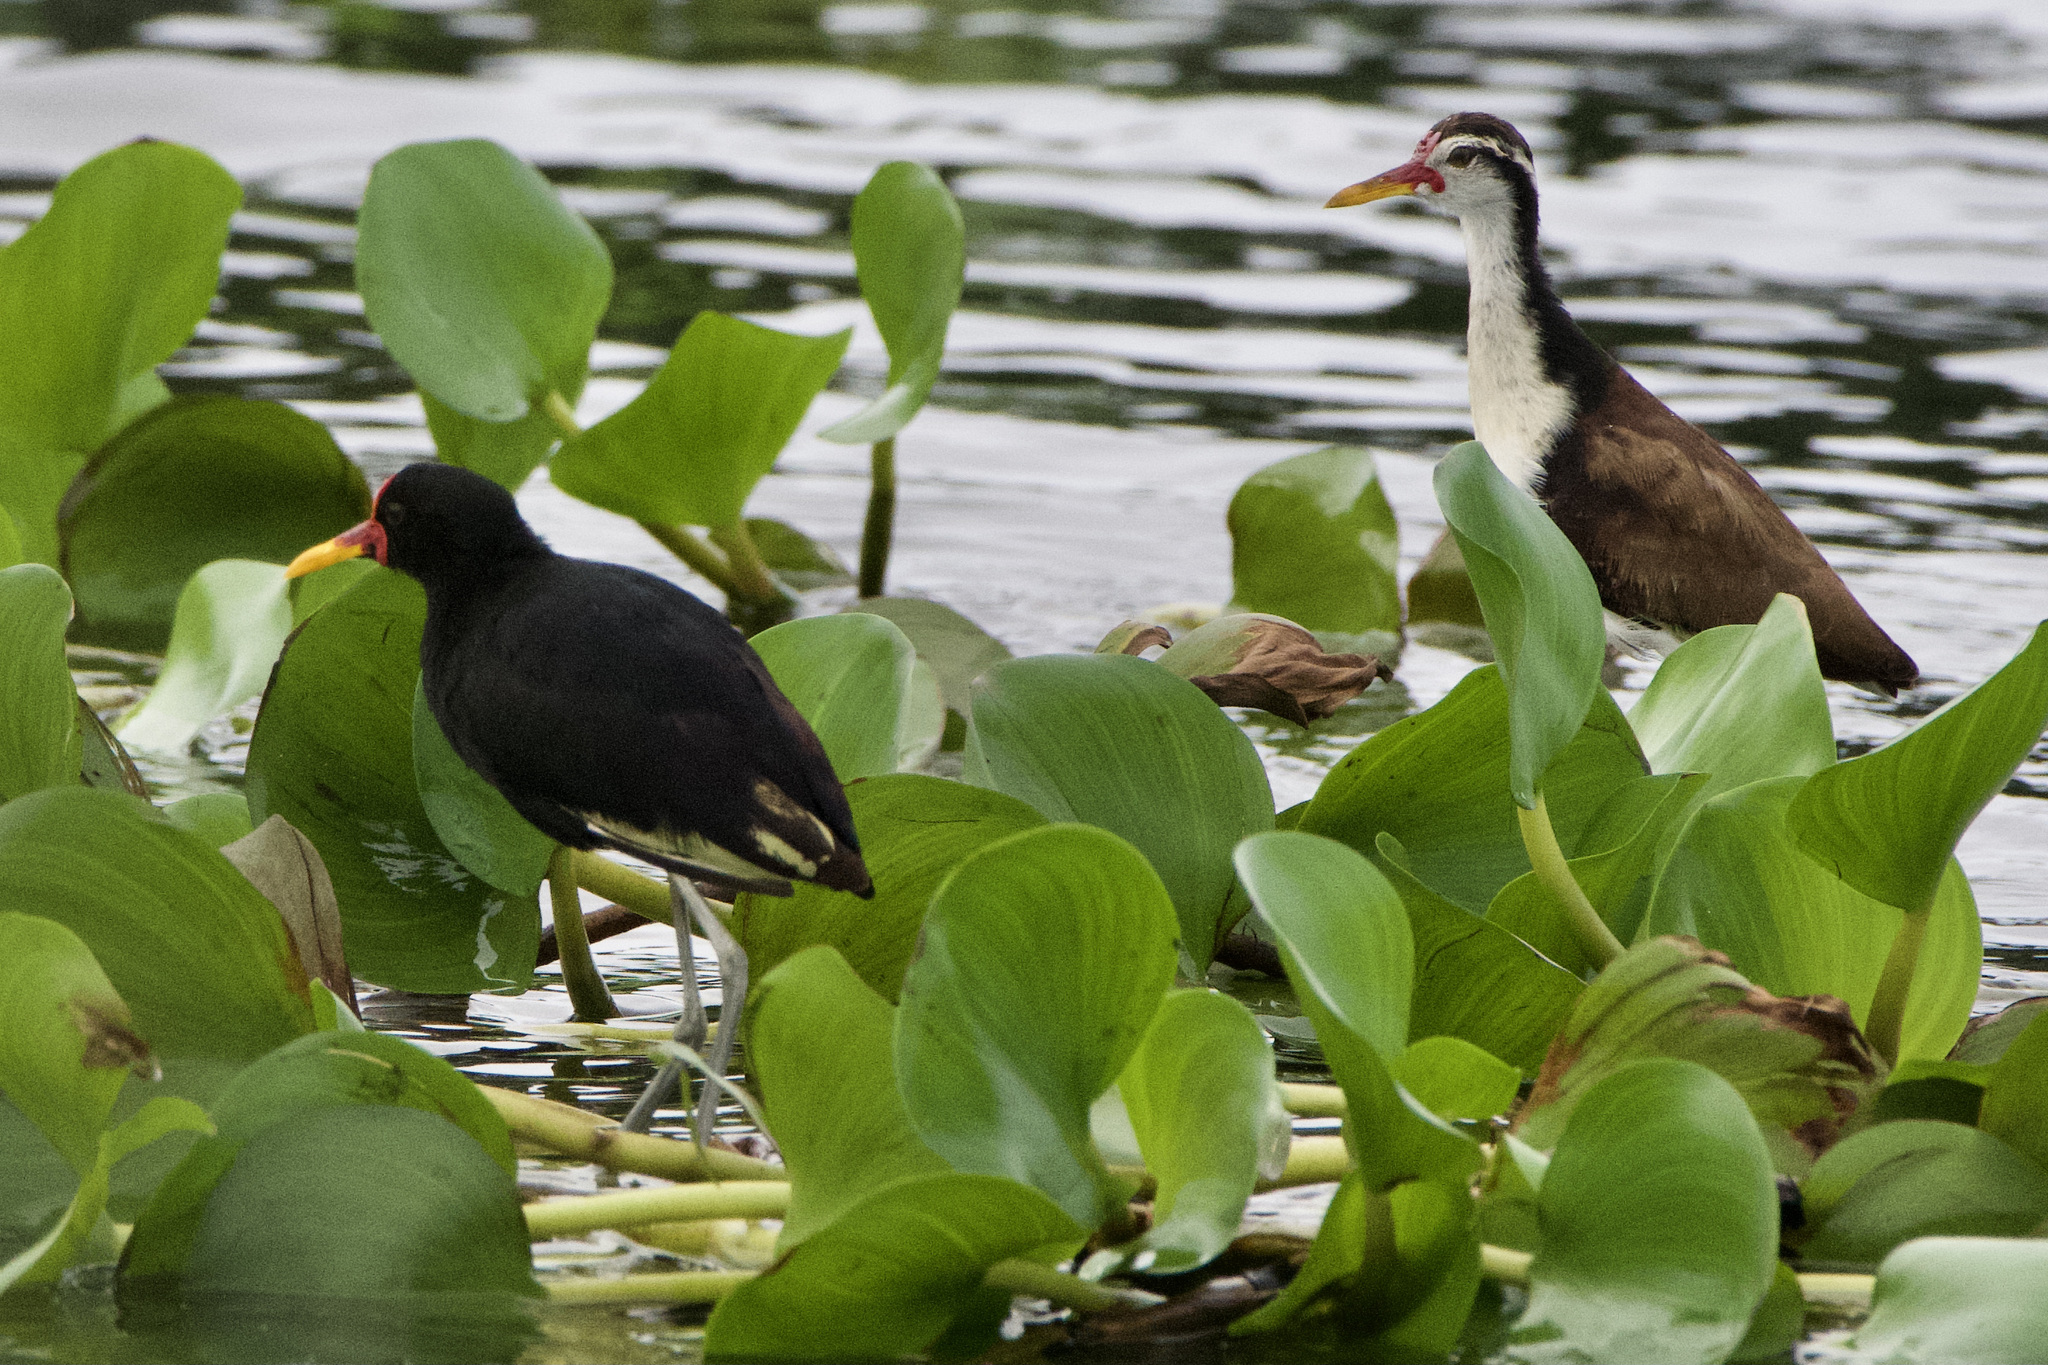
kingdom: Animalia
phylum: Chordata
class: Aves
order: Charadriiformes
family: Jacanidae
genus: Jacana
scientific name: Jacana jacana
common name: Wattled jacana
